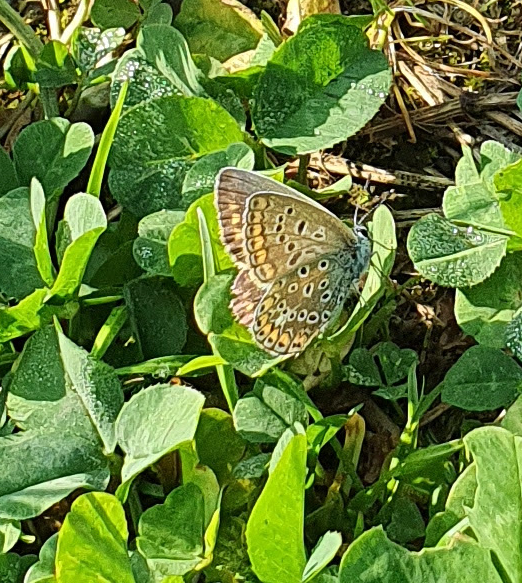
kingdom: Animalia
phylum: Arthropoda
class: Insecta
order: Lepidoptera
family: Lycaenidae
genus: Polyommatus
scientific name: Polyommatus icarus
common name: Common blue
